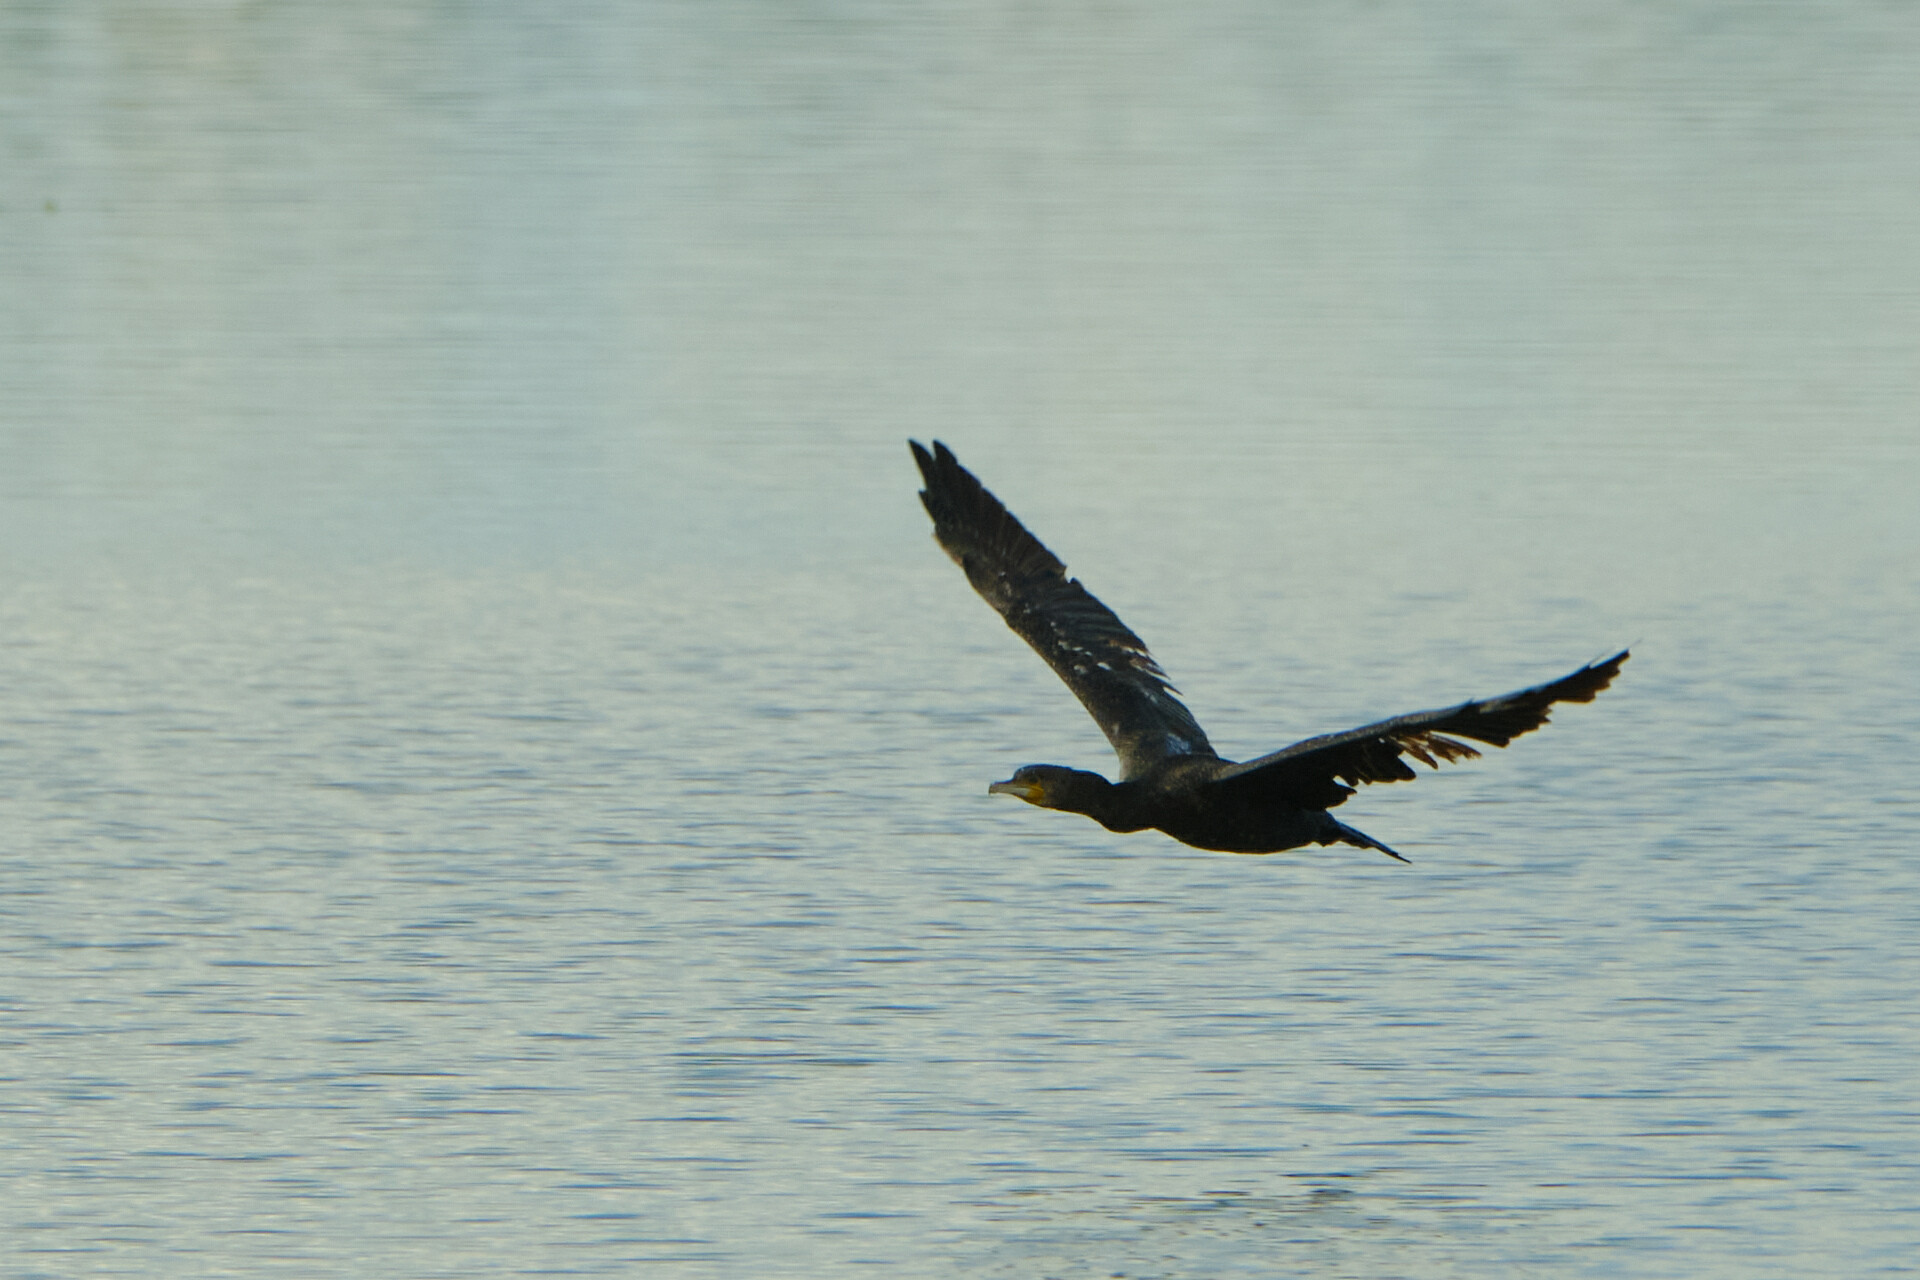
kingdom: Animalia
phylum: Chordata
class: Aves
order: Suliformes
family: Phalacrocoracidae
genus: Phalacrocorax
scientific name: Phalacrocorax carbo
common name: Great cormorant
